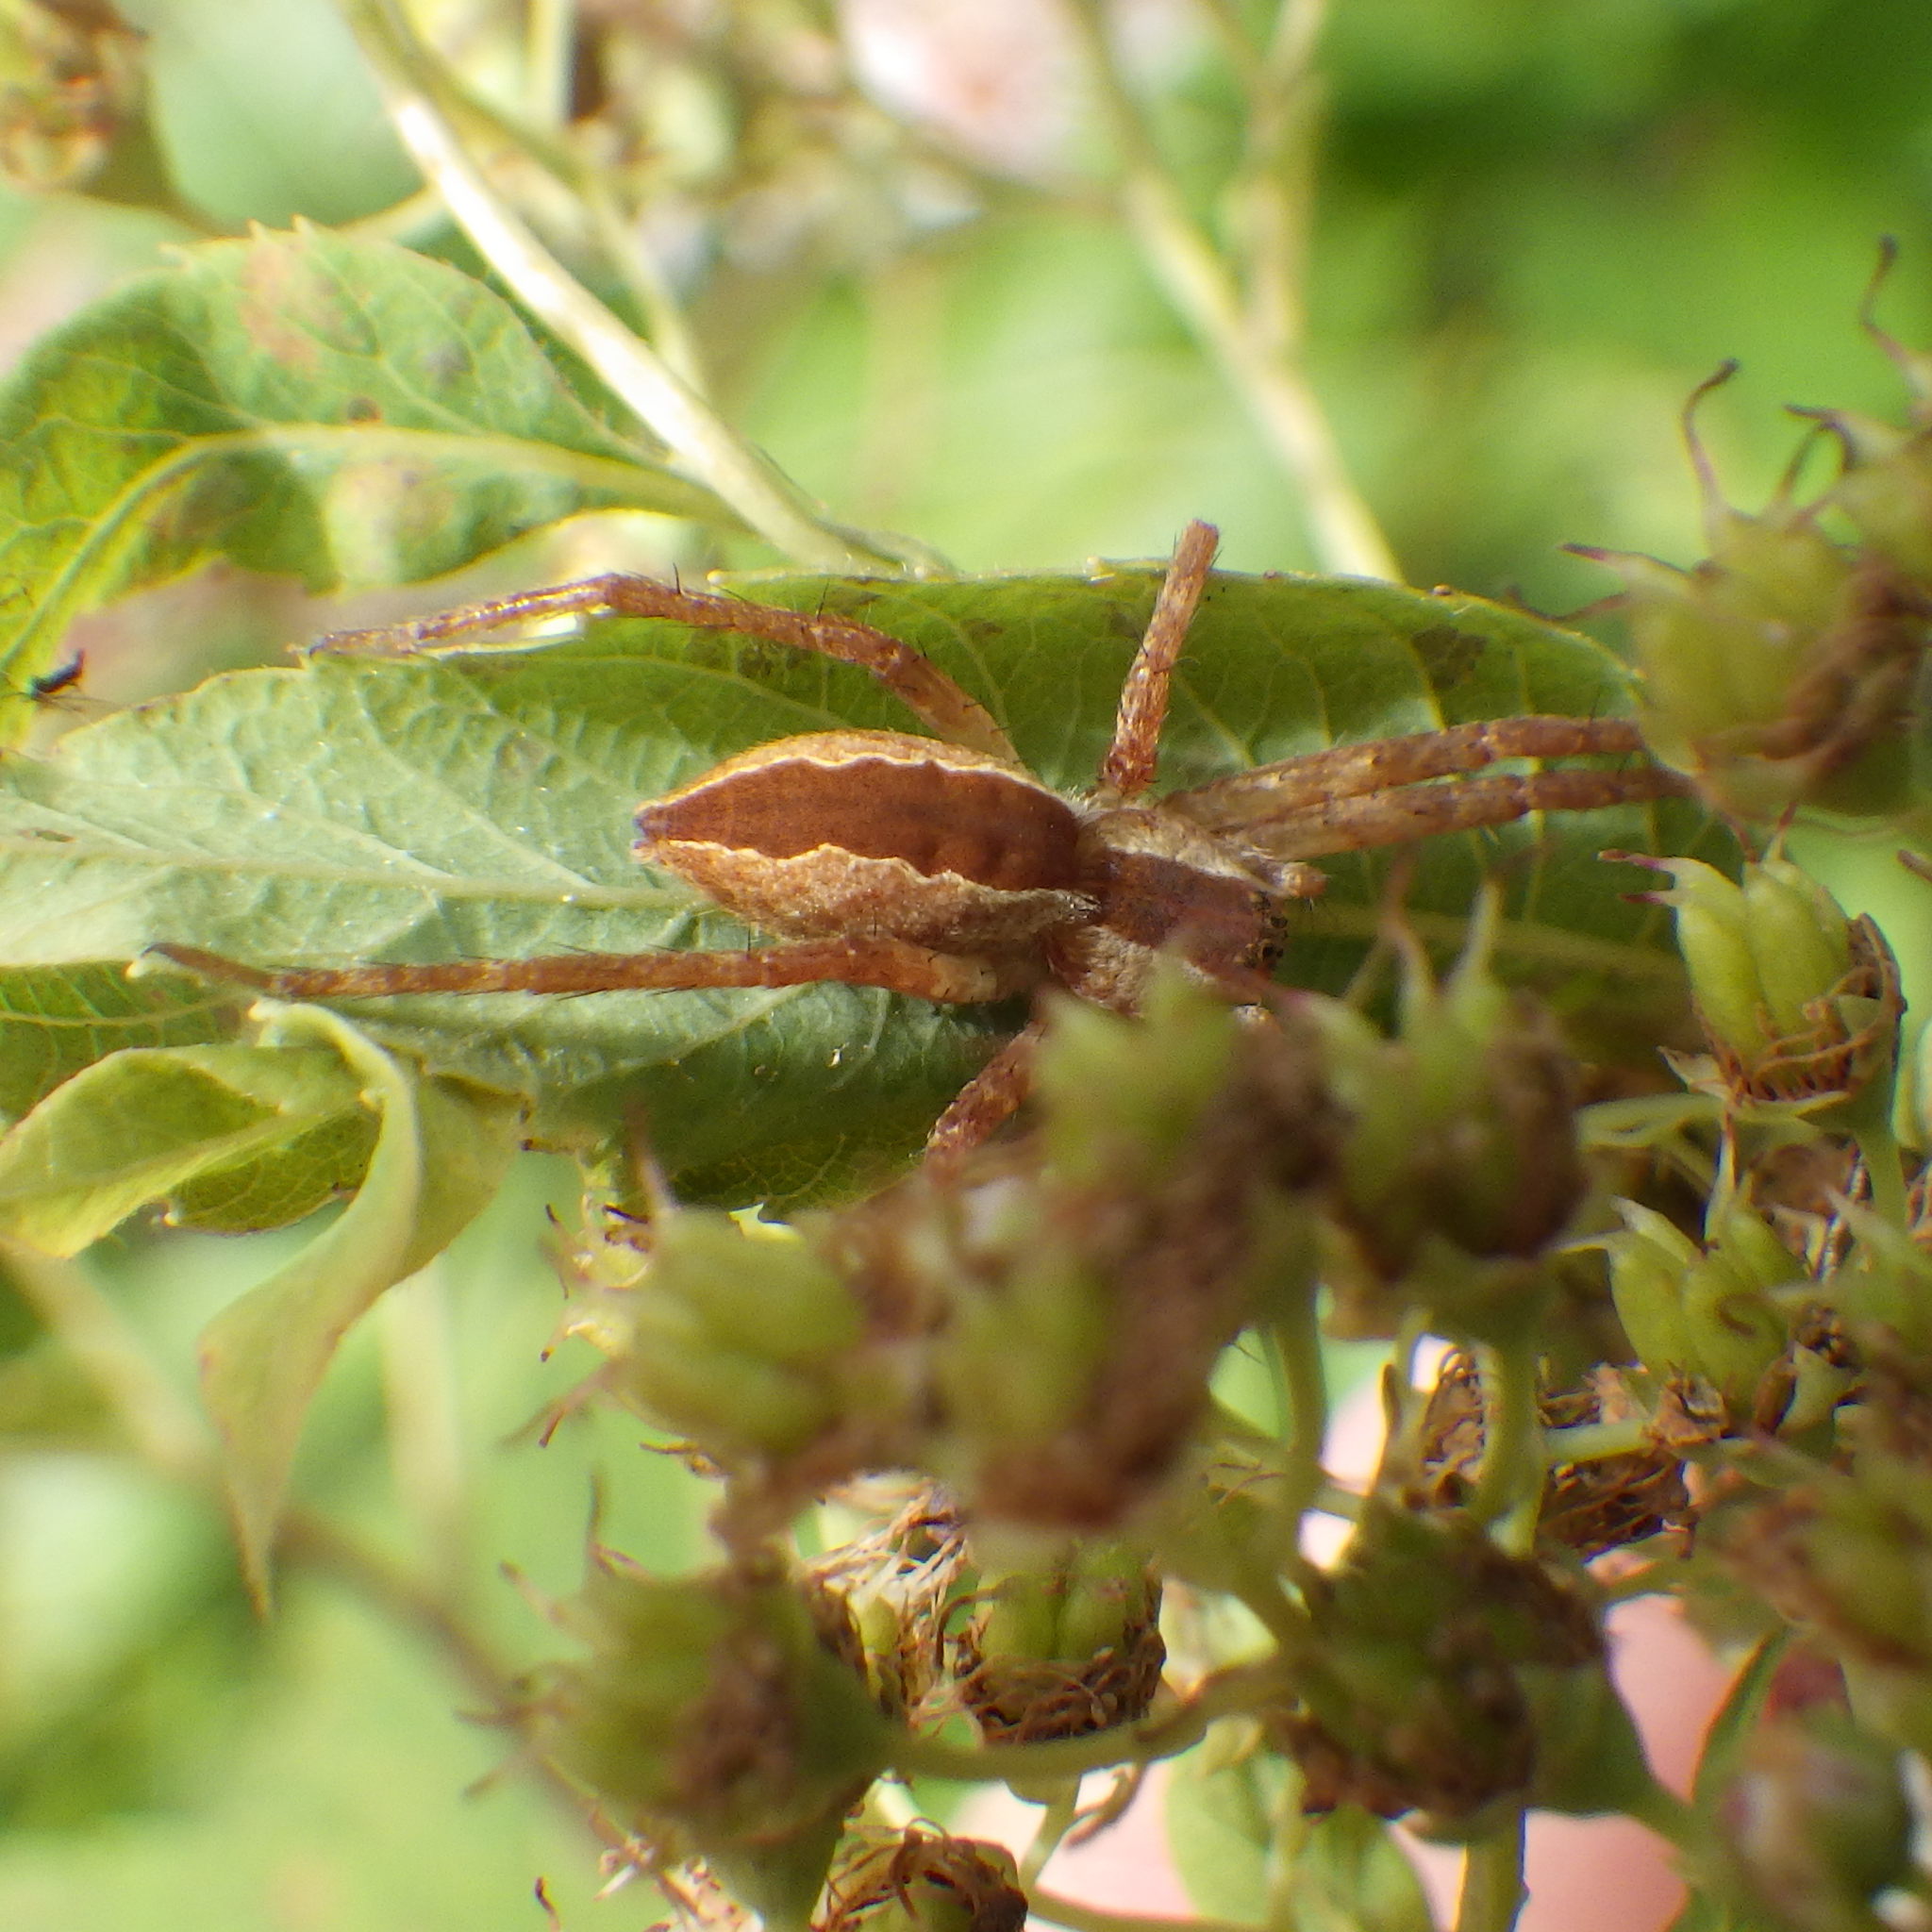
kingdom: Animalia
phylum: Arthropoda
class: Arachnida
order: Araneae
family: Pisauridae
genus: Pisaurina
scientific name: Pisaurina mira
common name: American nursery web spider
